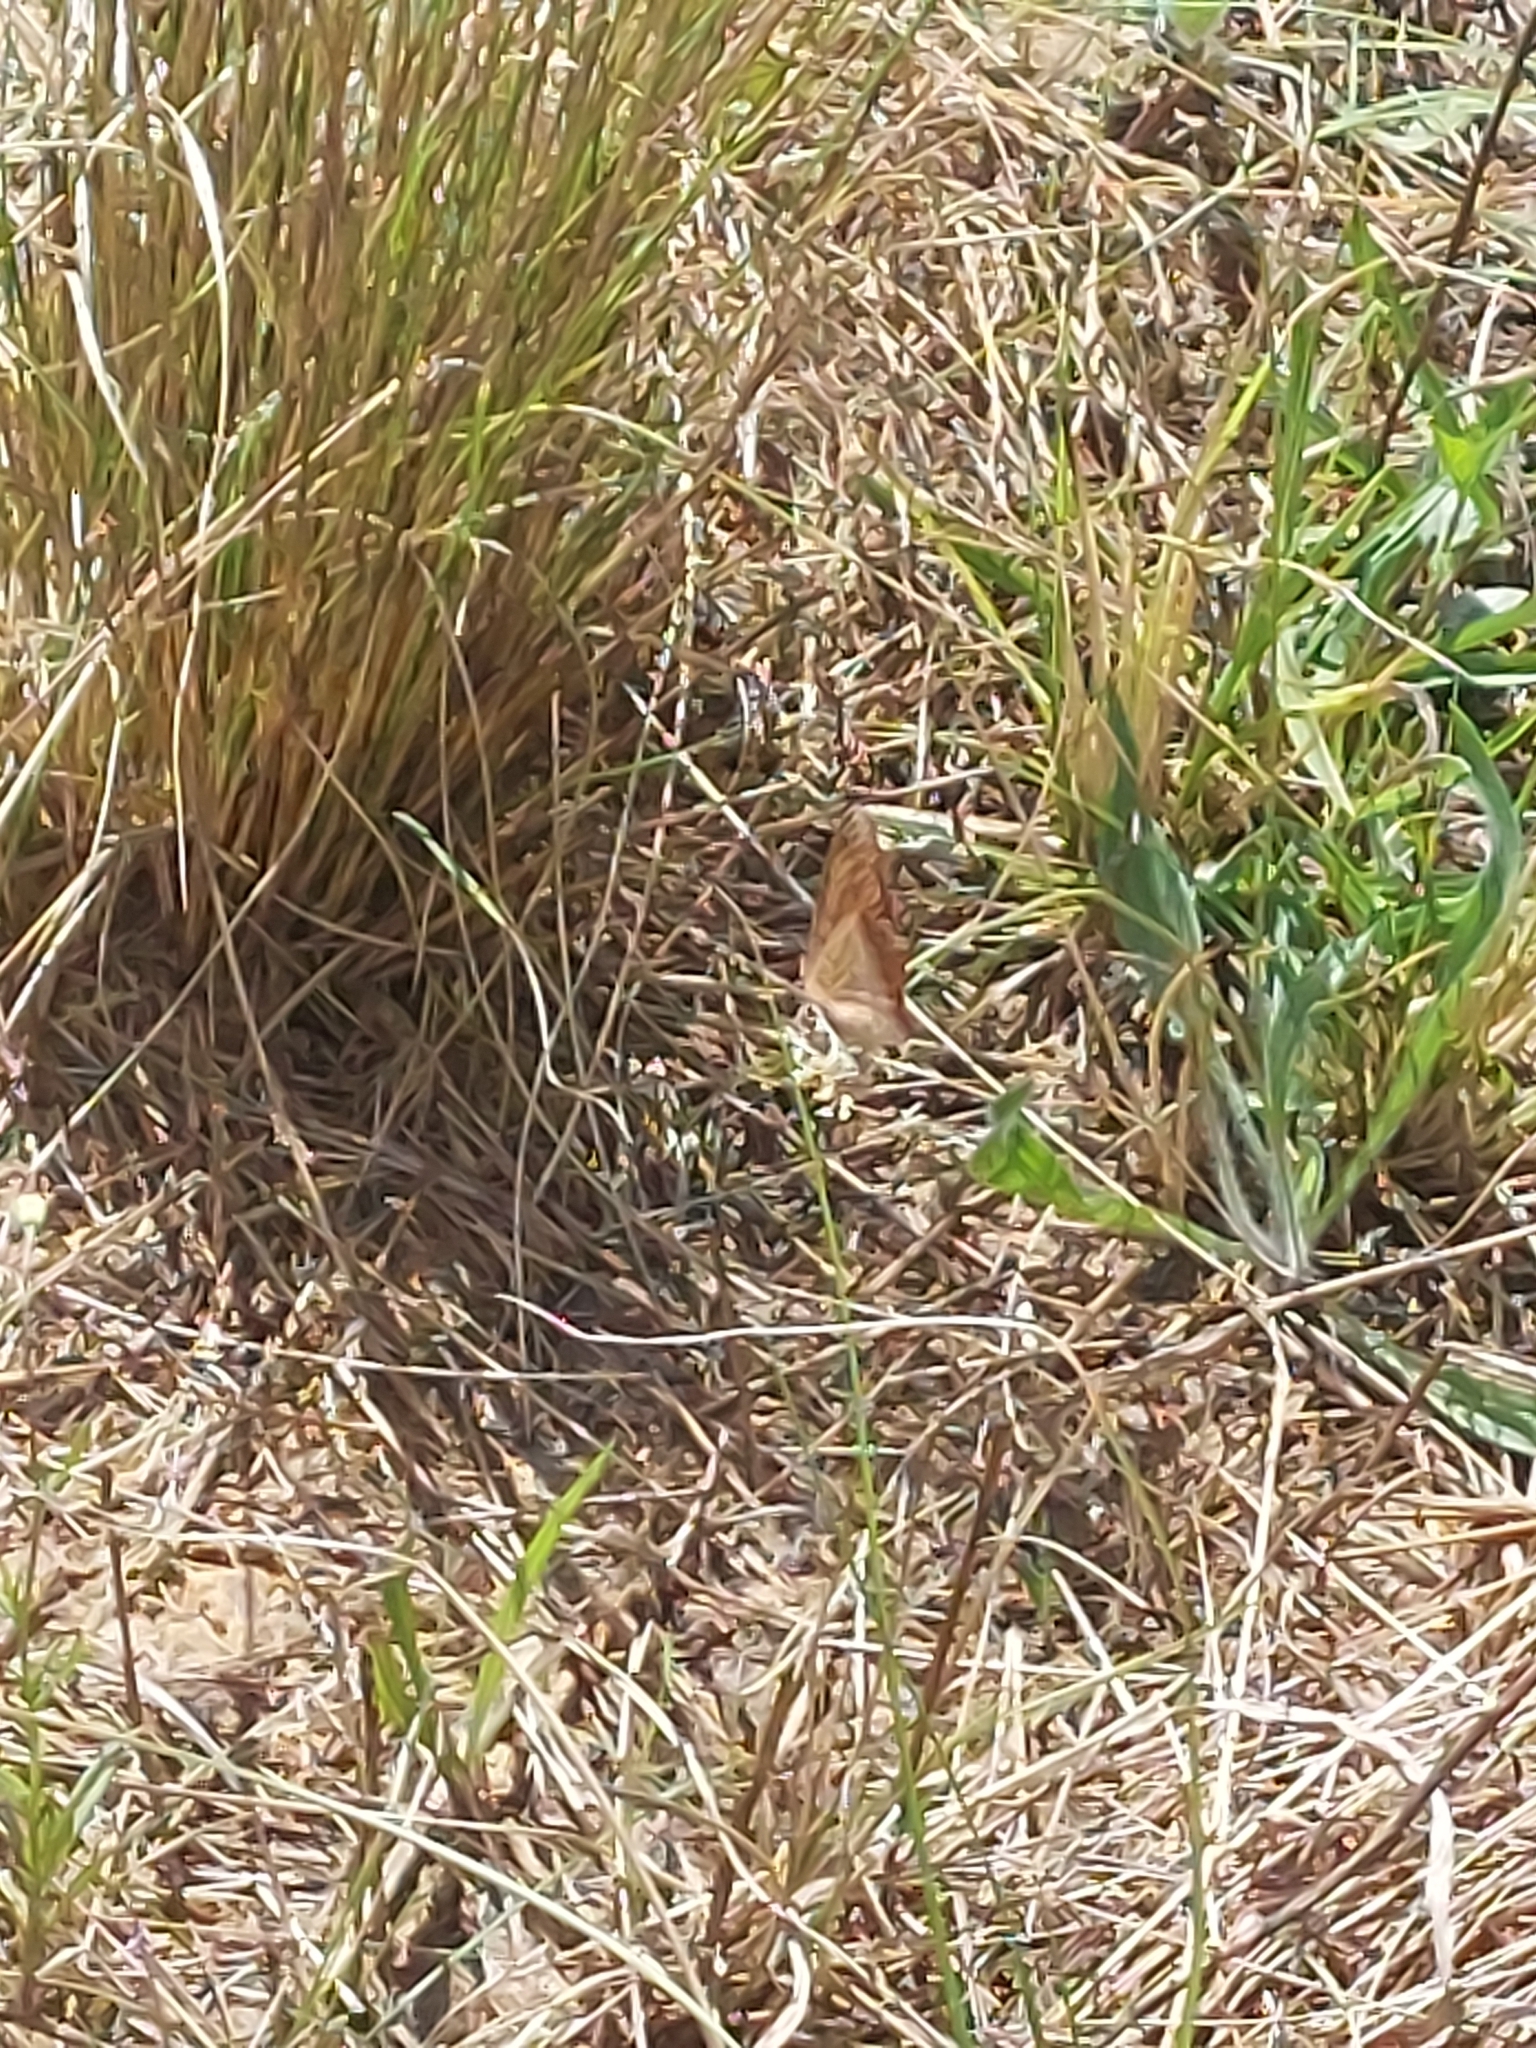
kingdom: Animalia
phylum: Arthropoda
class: Insecta
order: Lepidoptera
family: Nymphalidae
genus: Catacroptera
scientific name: Catacroptera cloanthe
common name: Pirate
